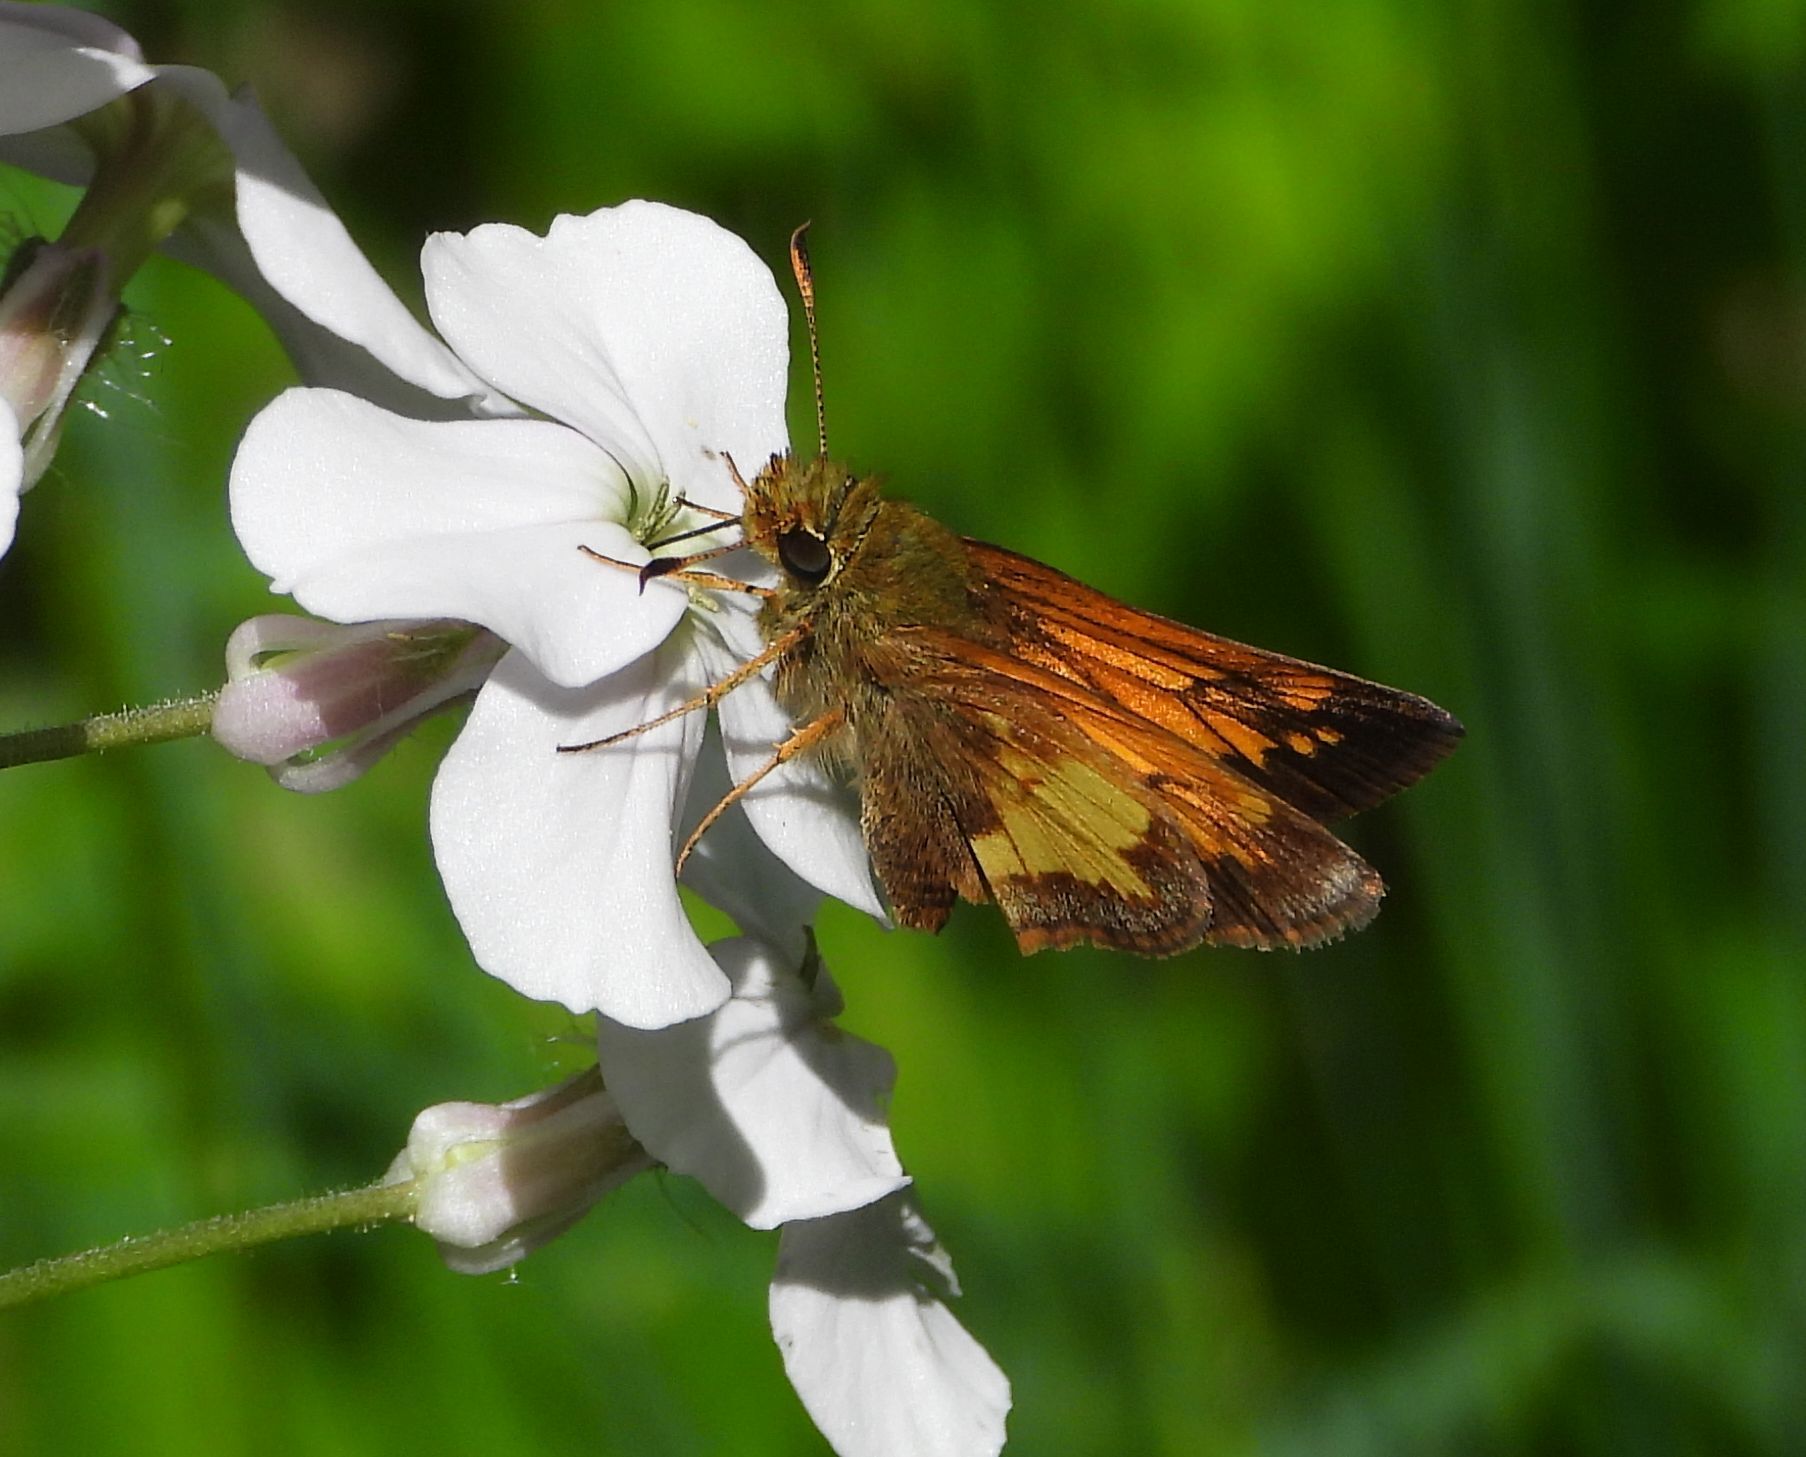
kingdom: Animalia
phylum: Arthropoda
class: Insecta
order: Lepidoptera
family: Hesperiidae
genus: Lon
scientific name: Lon hobomok
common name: Hobomok skipper
